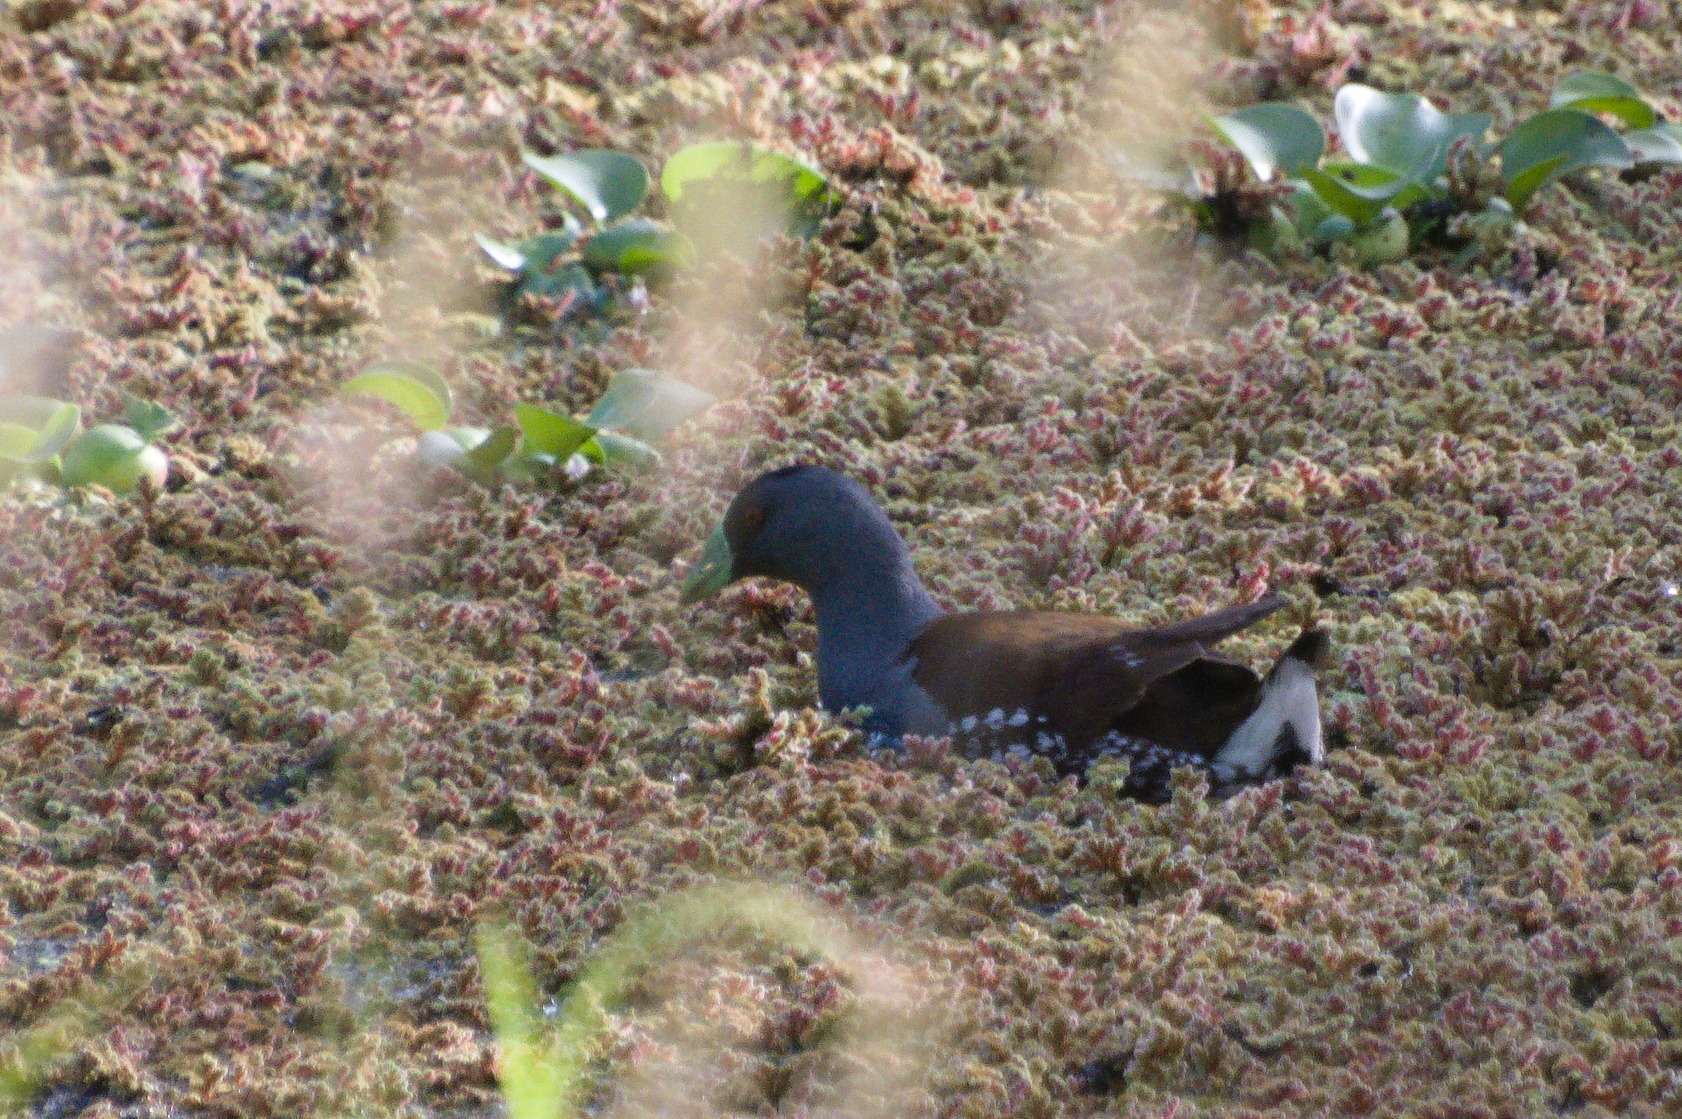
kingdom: Animalia
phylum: Chordata
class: Aves
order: Gruiformes
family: Rallidae
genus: Gallinula
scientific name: Gallinula melanops
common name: Spot-flanked gallinule
